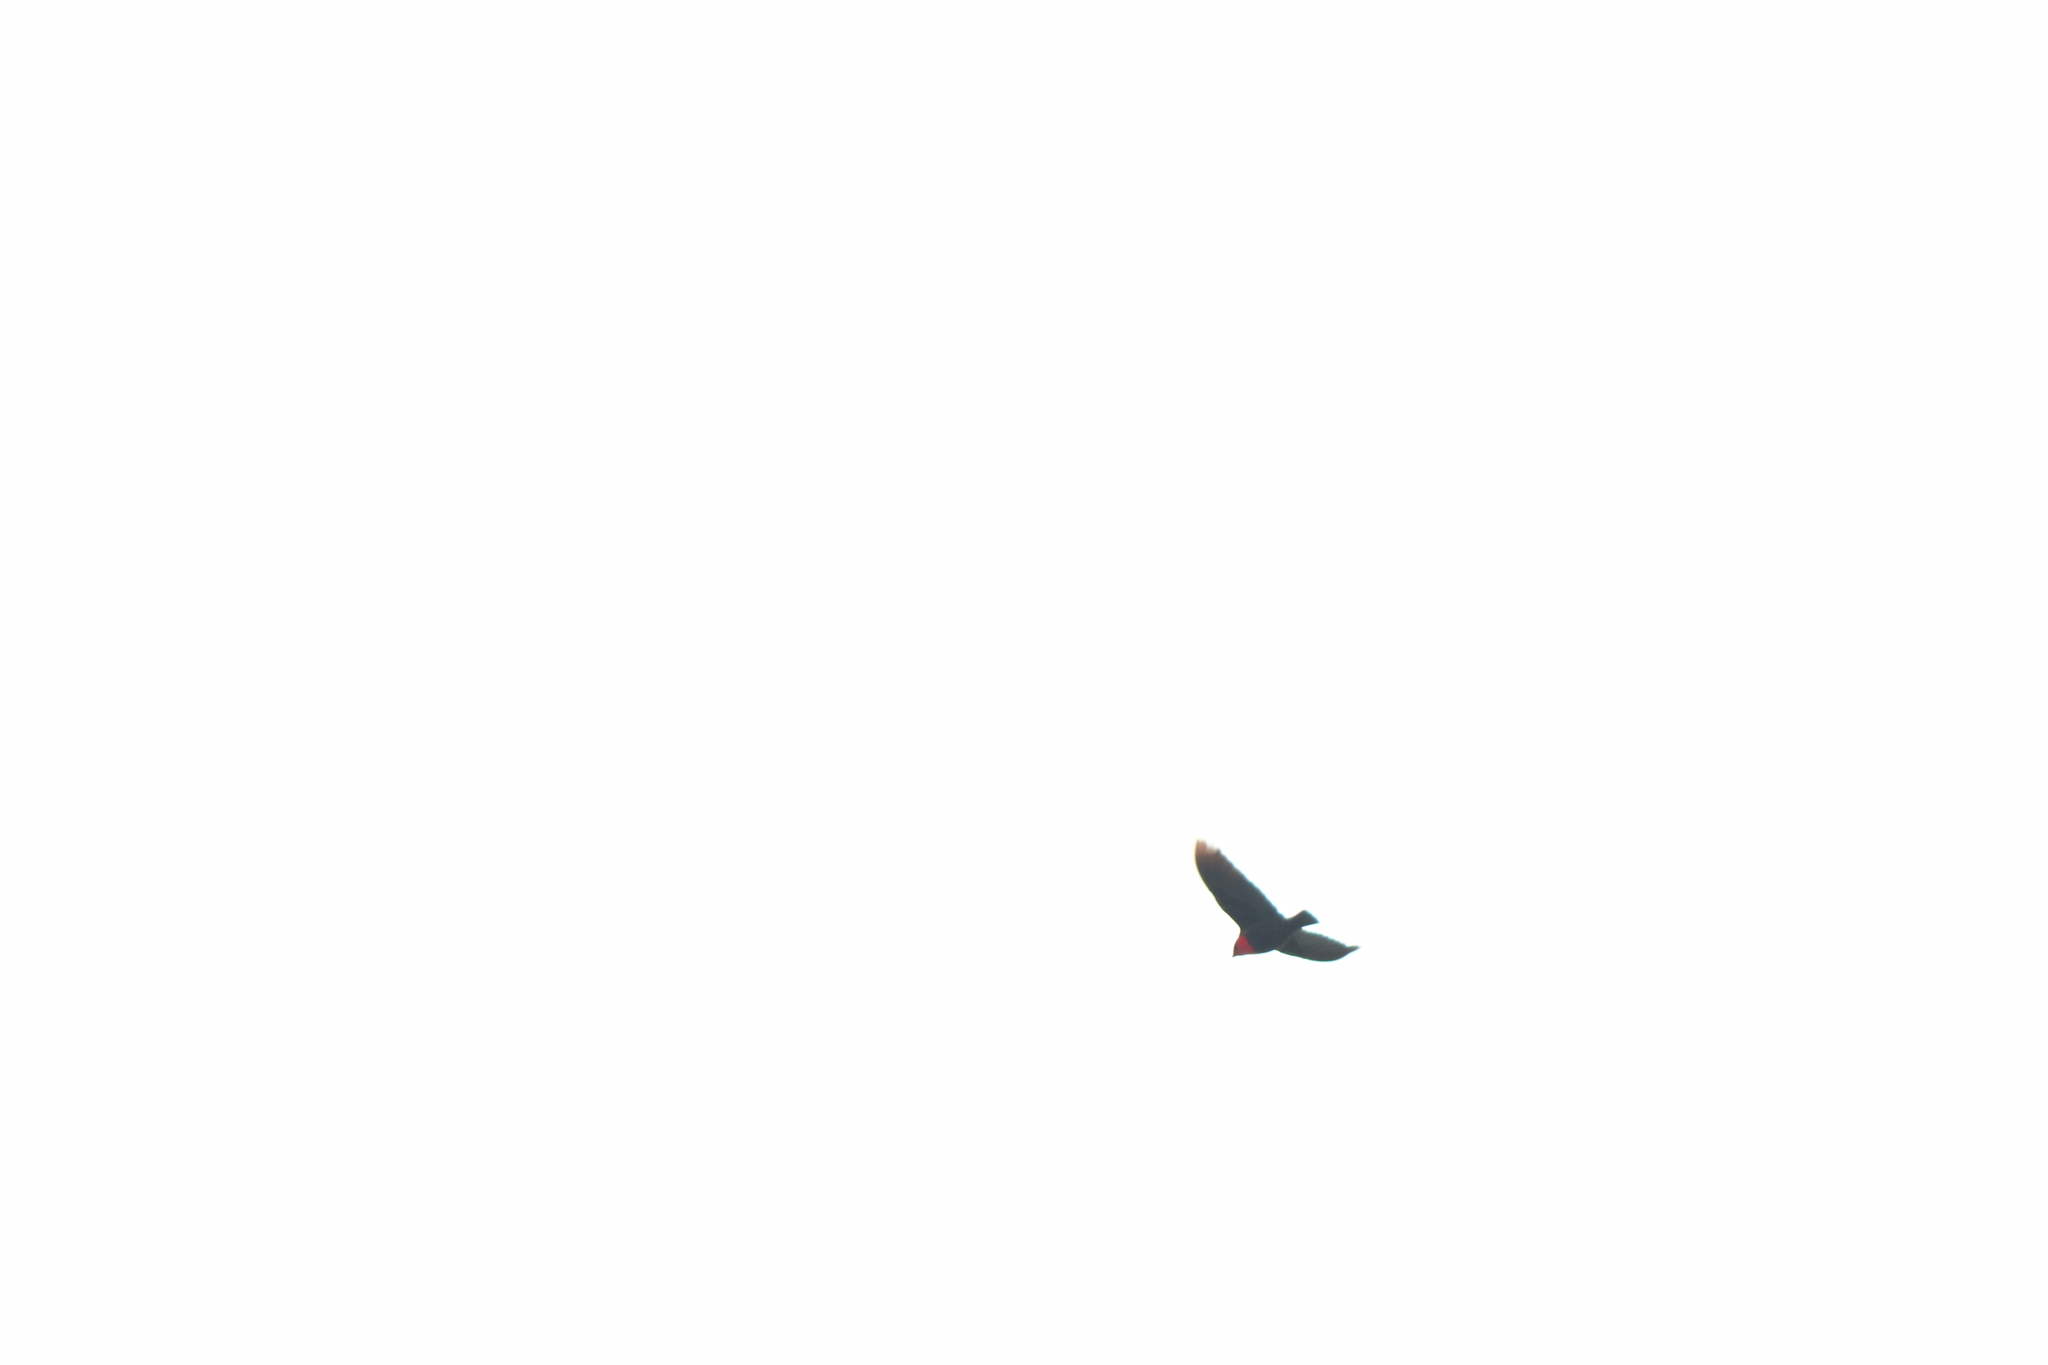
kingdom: Animalia
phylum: Chordata
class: Aves
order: Passeriformes
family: Icteridae
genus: Sturnella
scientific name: Sturnella superciliaris
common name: White-browed blackbird
